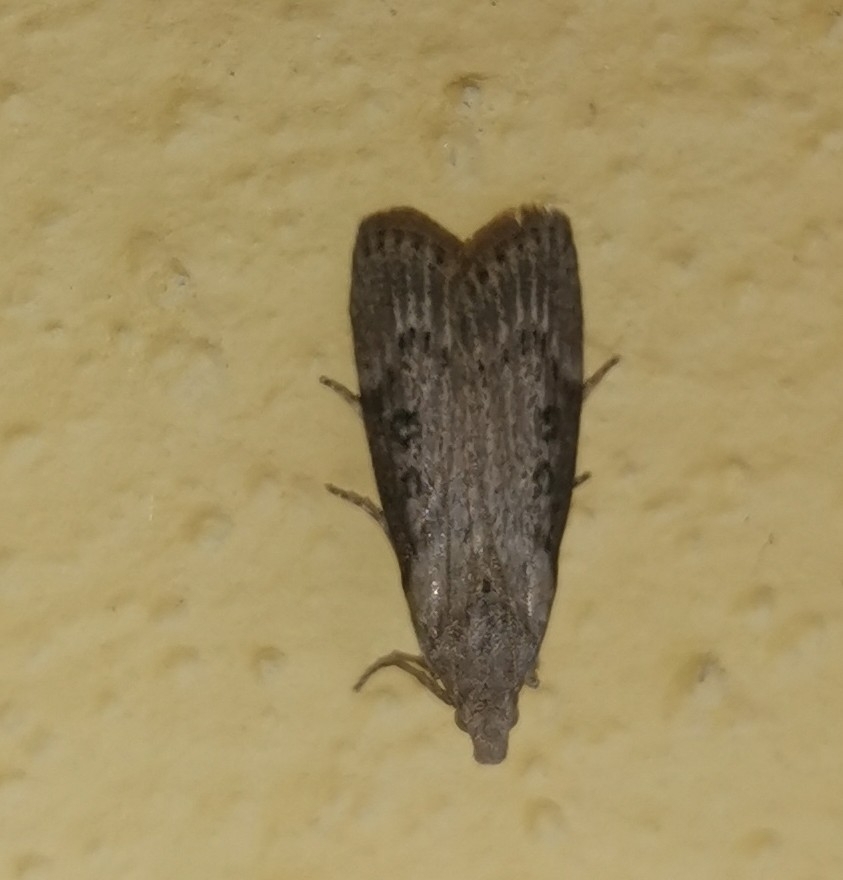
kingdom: Animalia
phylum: Arthropoda
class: Insecta
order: Lepidoptera
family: Pyralidae
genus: Lamoria
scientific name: Lamoria anella
